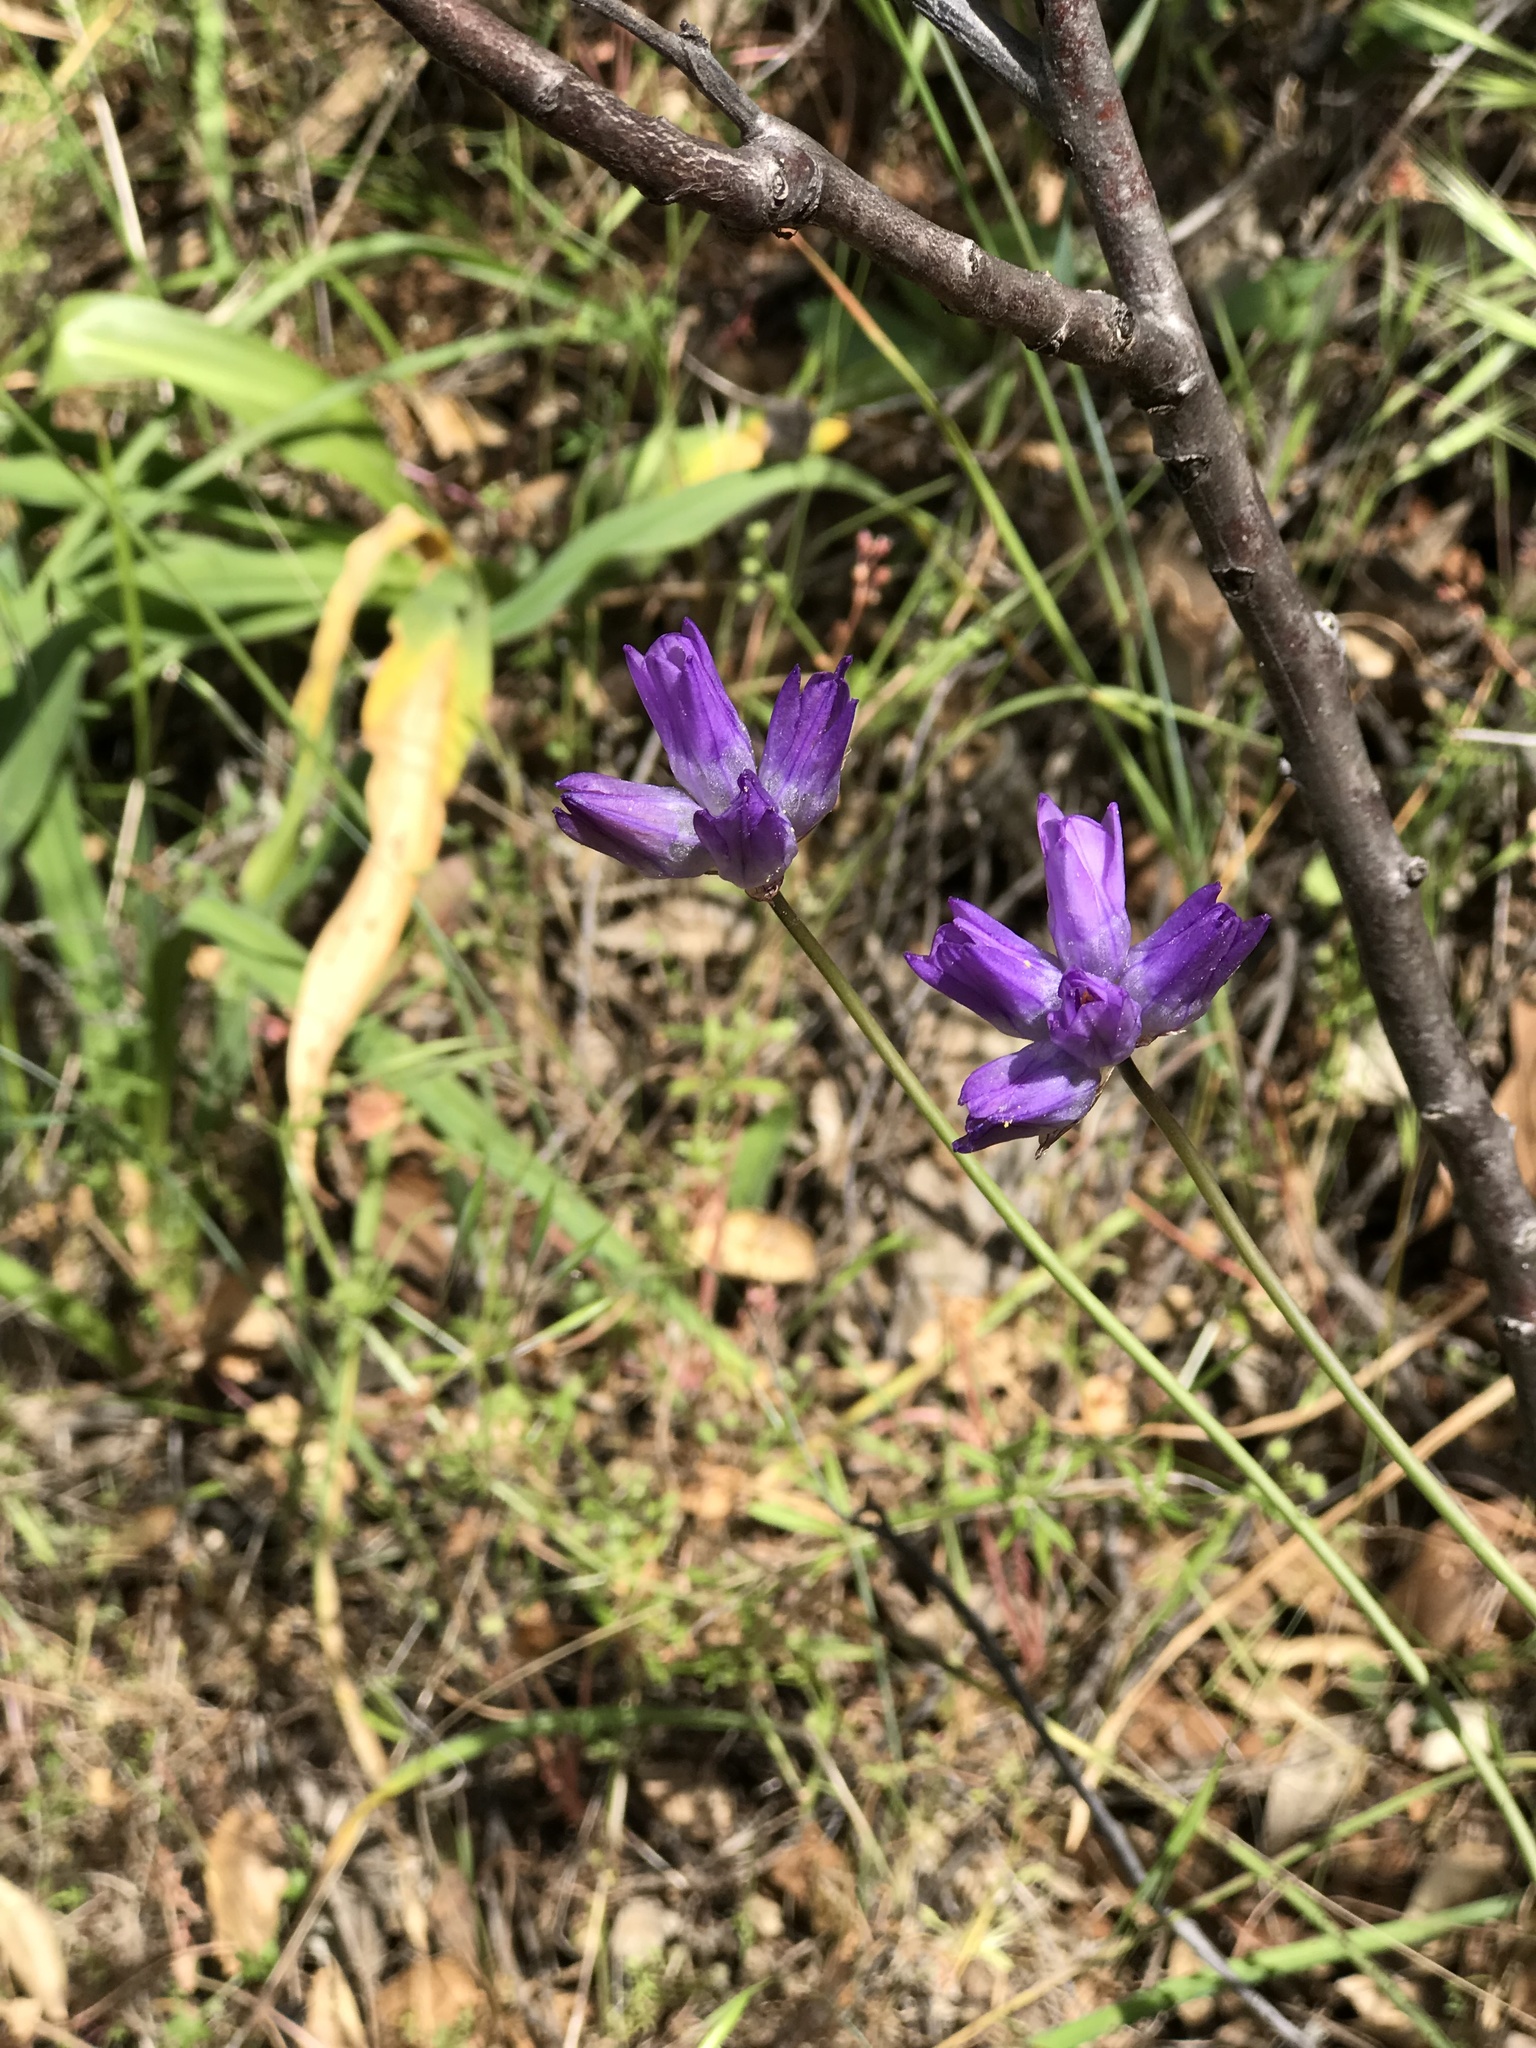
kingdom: Plantae
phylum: Tracheophyta
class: Liliopsida
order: Asparagales
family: Asparagaceae
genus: Dipterostemon
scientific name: Dipterostemon capitatus
